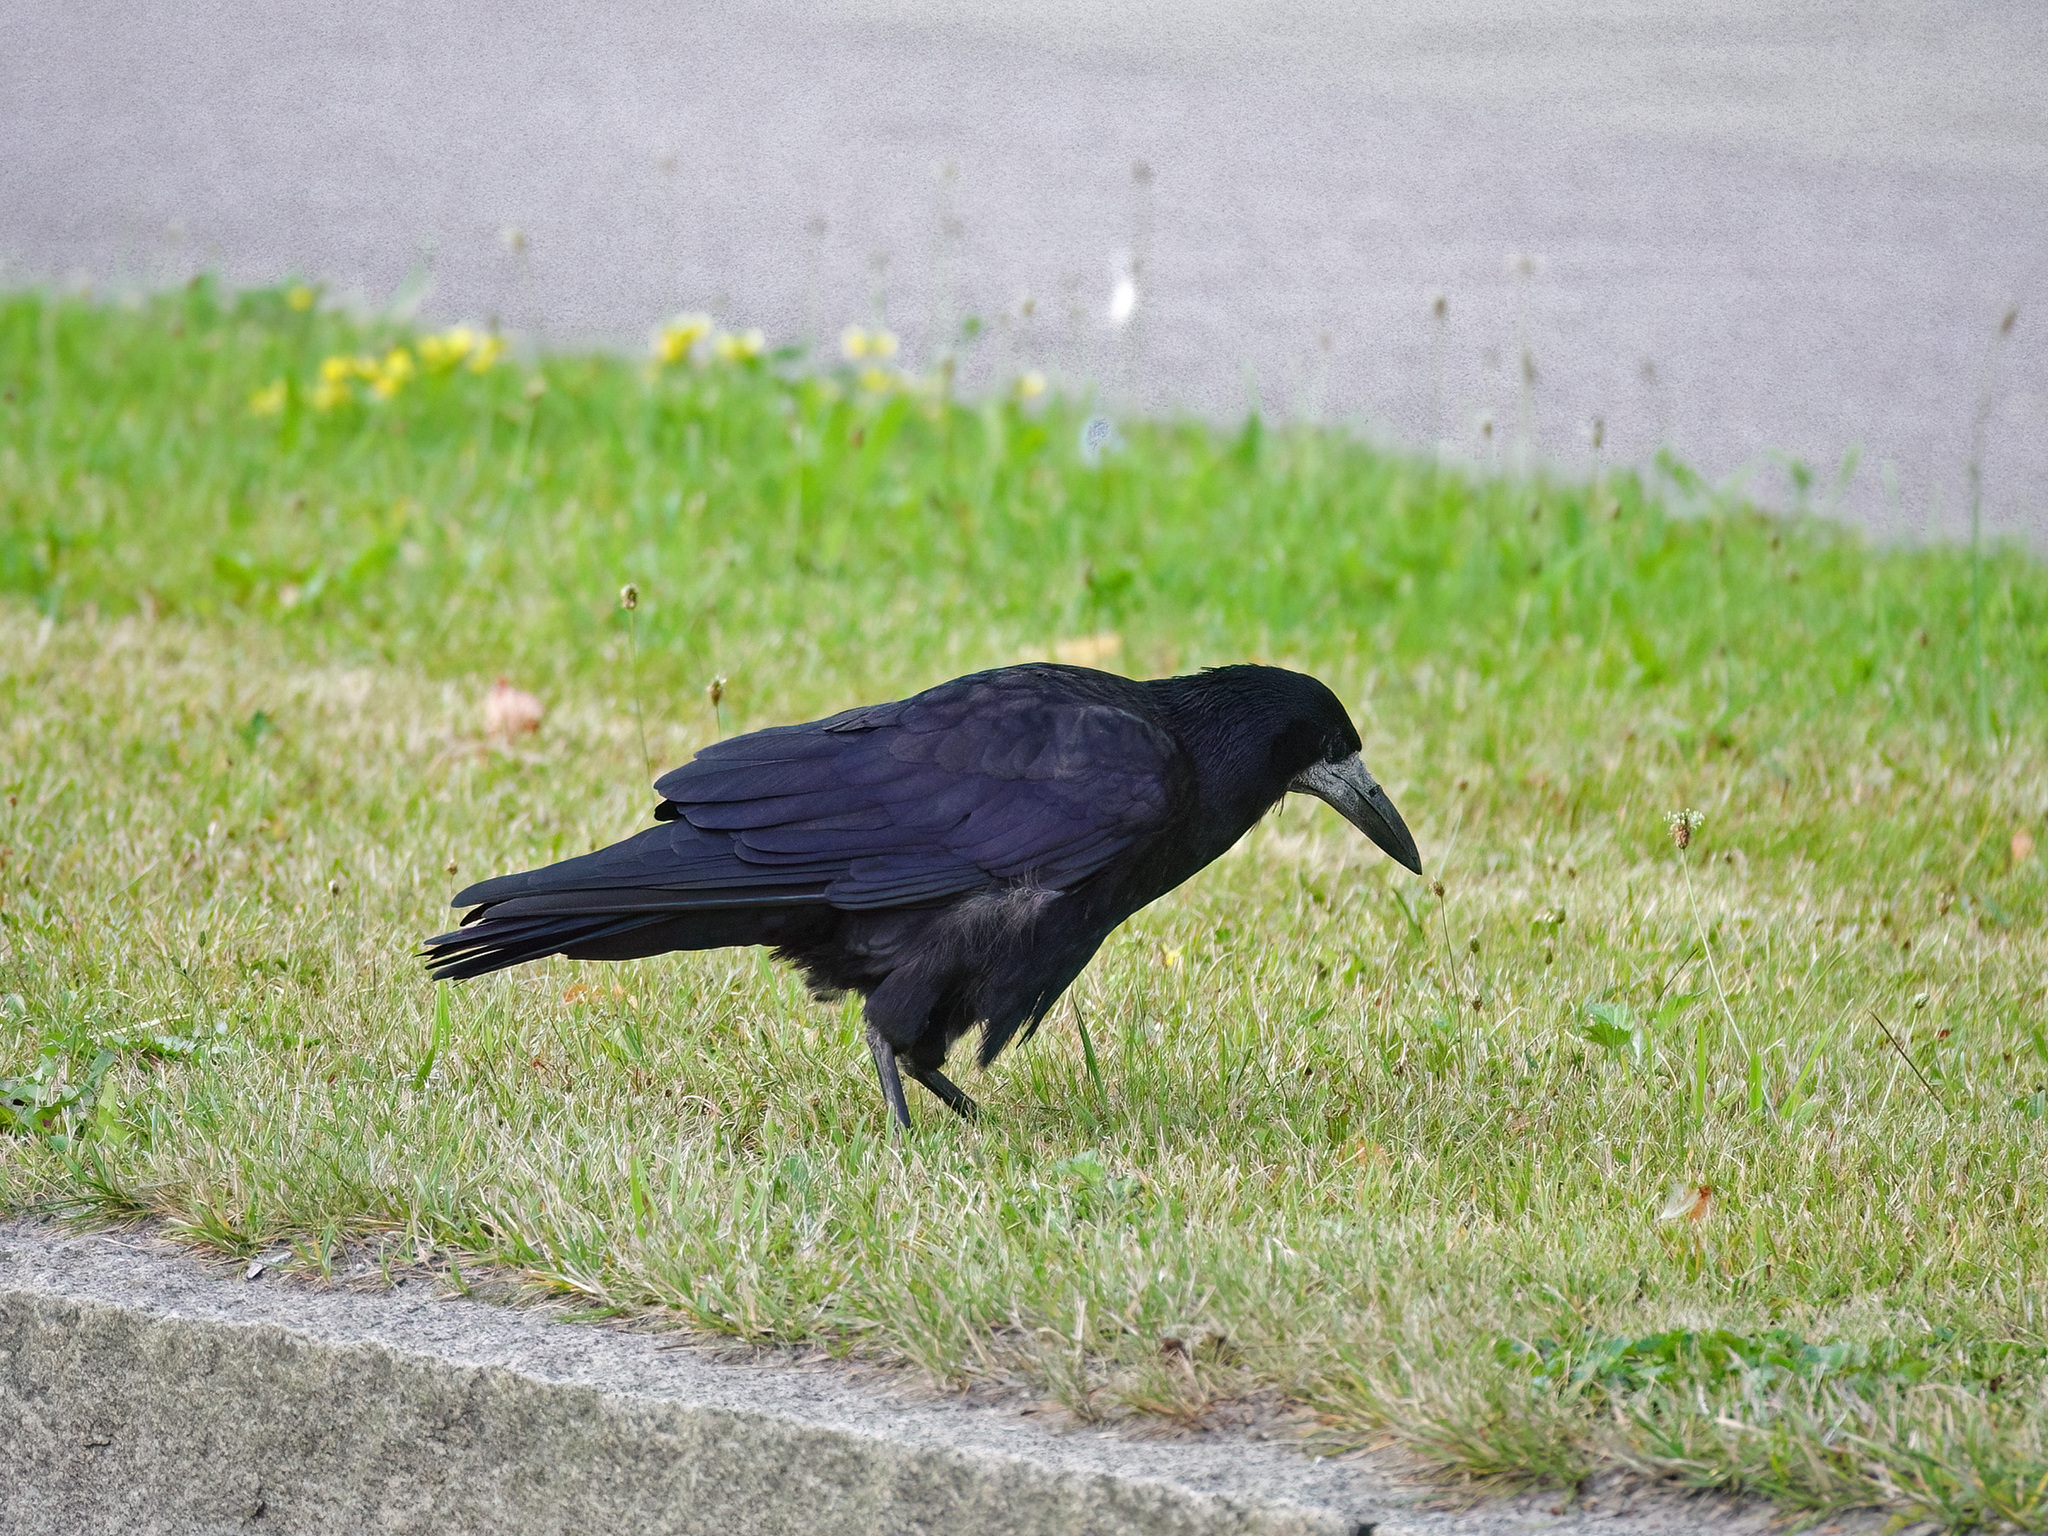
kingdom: Animalia
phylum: Chordata
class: Aves
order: Passeriformes
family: Corvidae
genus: Corvus
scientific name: Corvus frugilegus
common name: Rook
